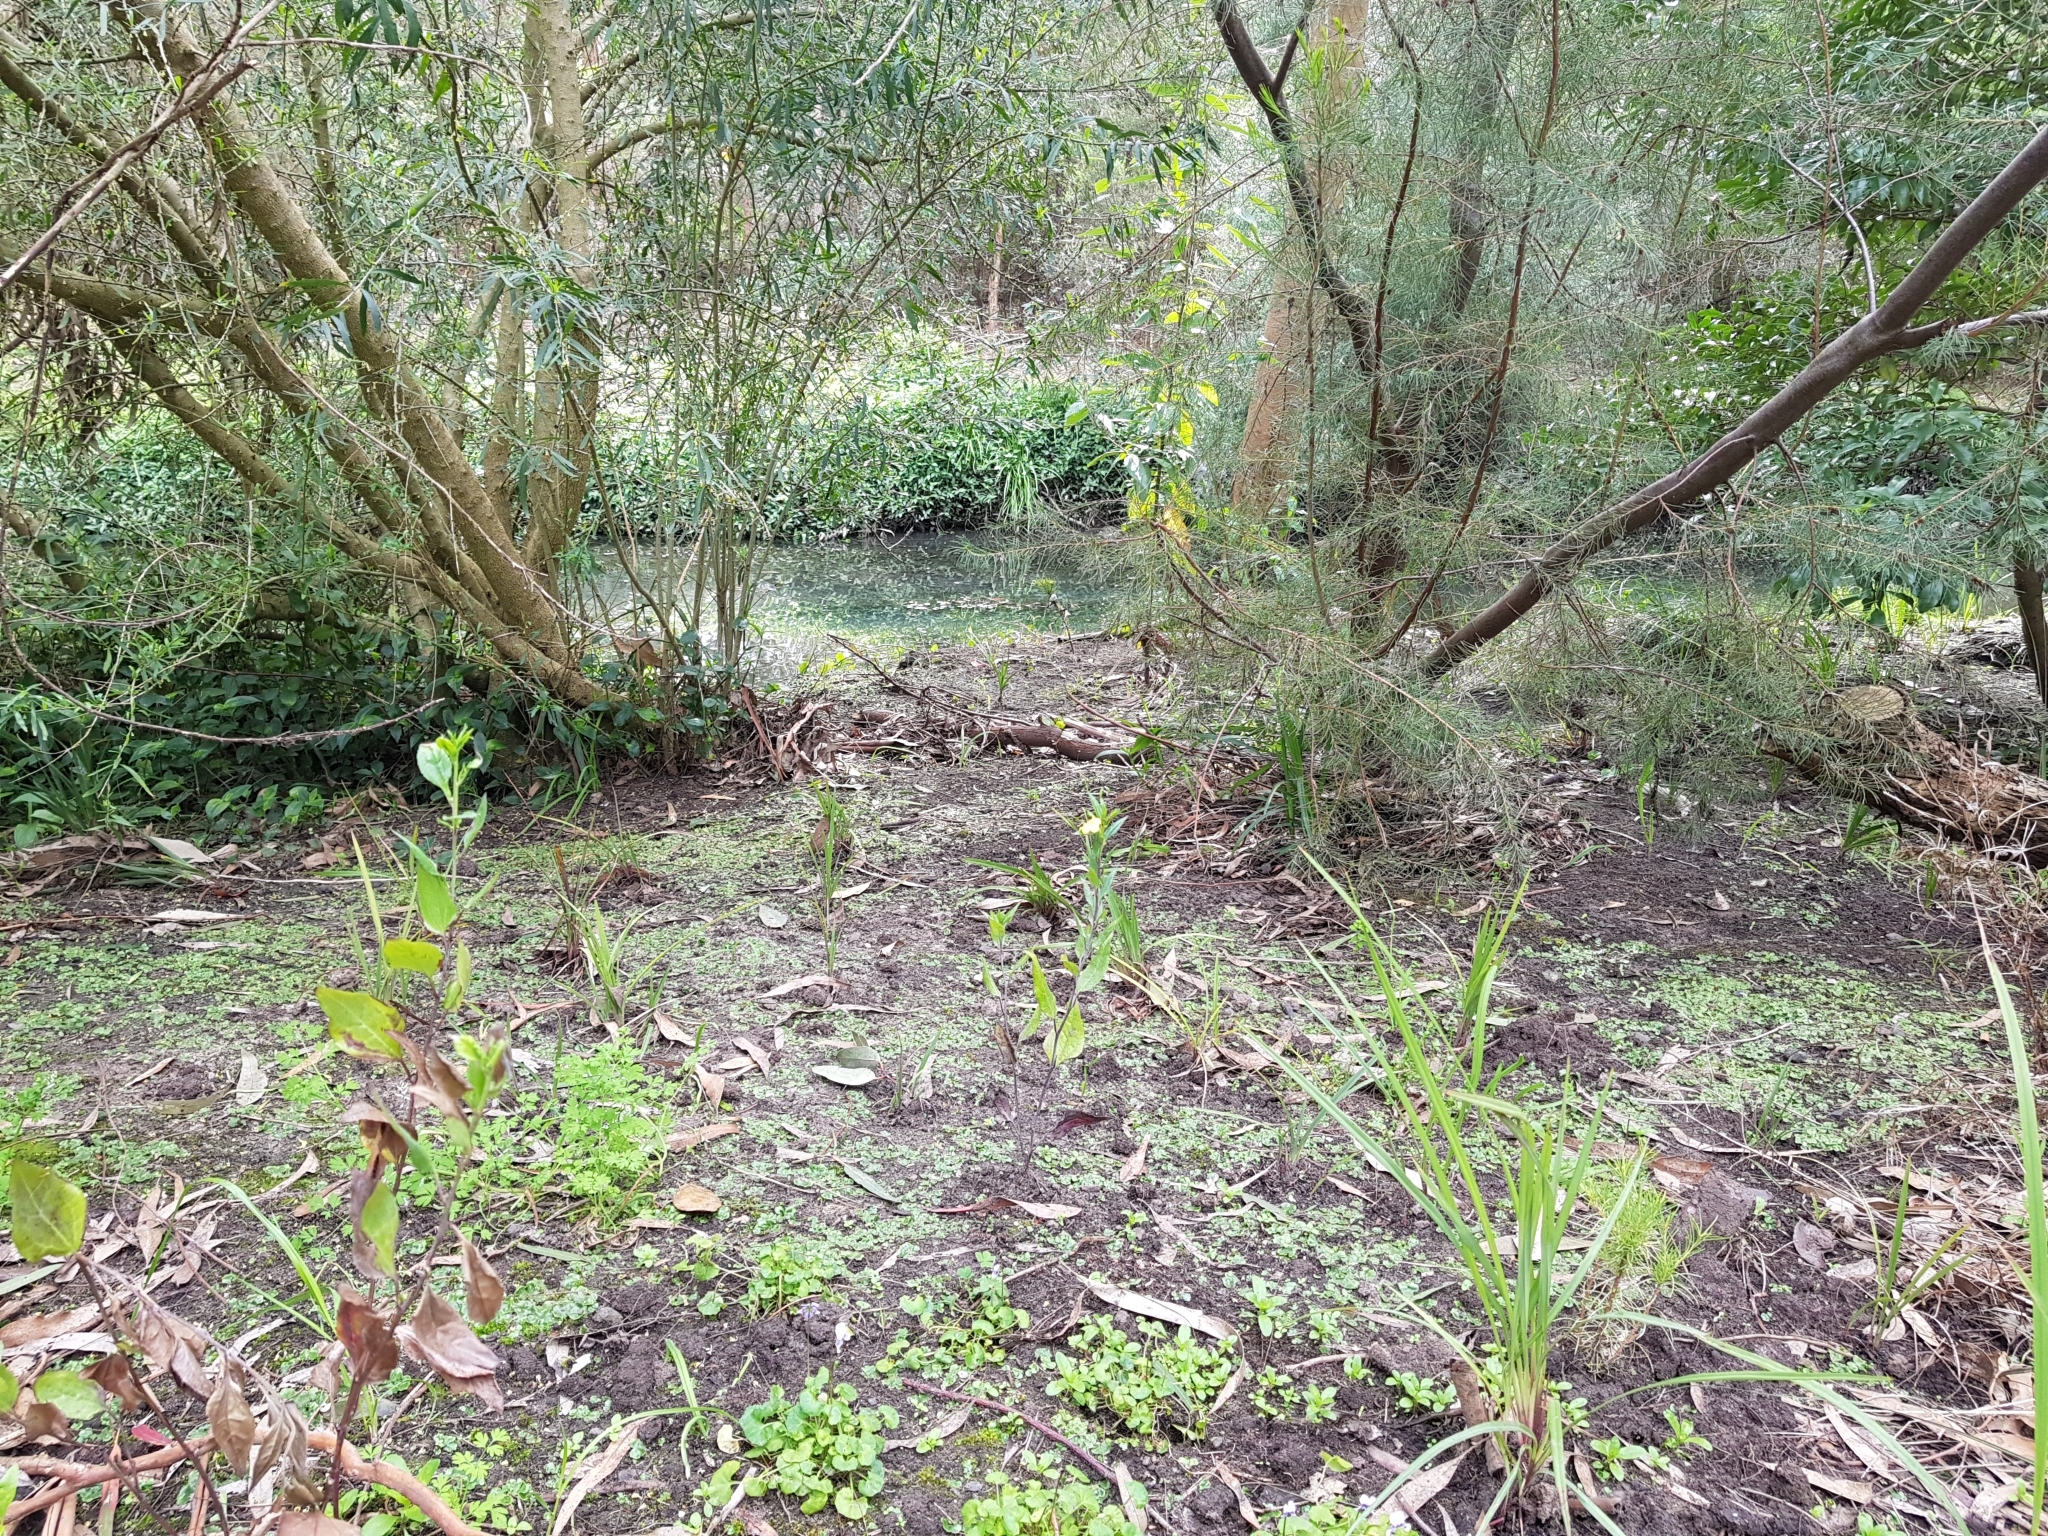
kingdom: Plantae
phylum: Tracheophyta
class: Magnoliopsida
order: Malpighiales
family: Violaceae
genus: Viola
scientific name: Viola hederacea
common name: Australian violet
